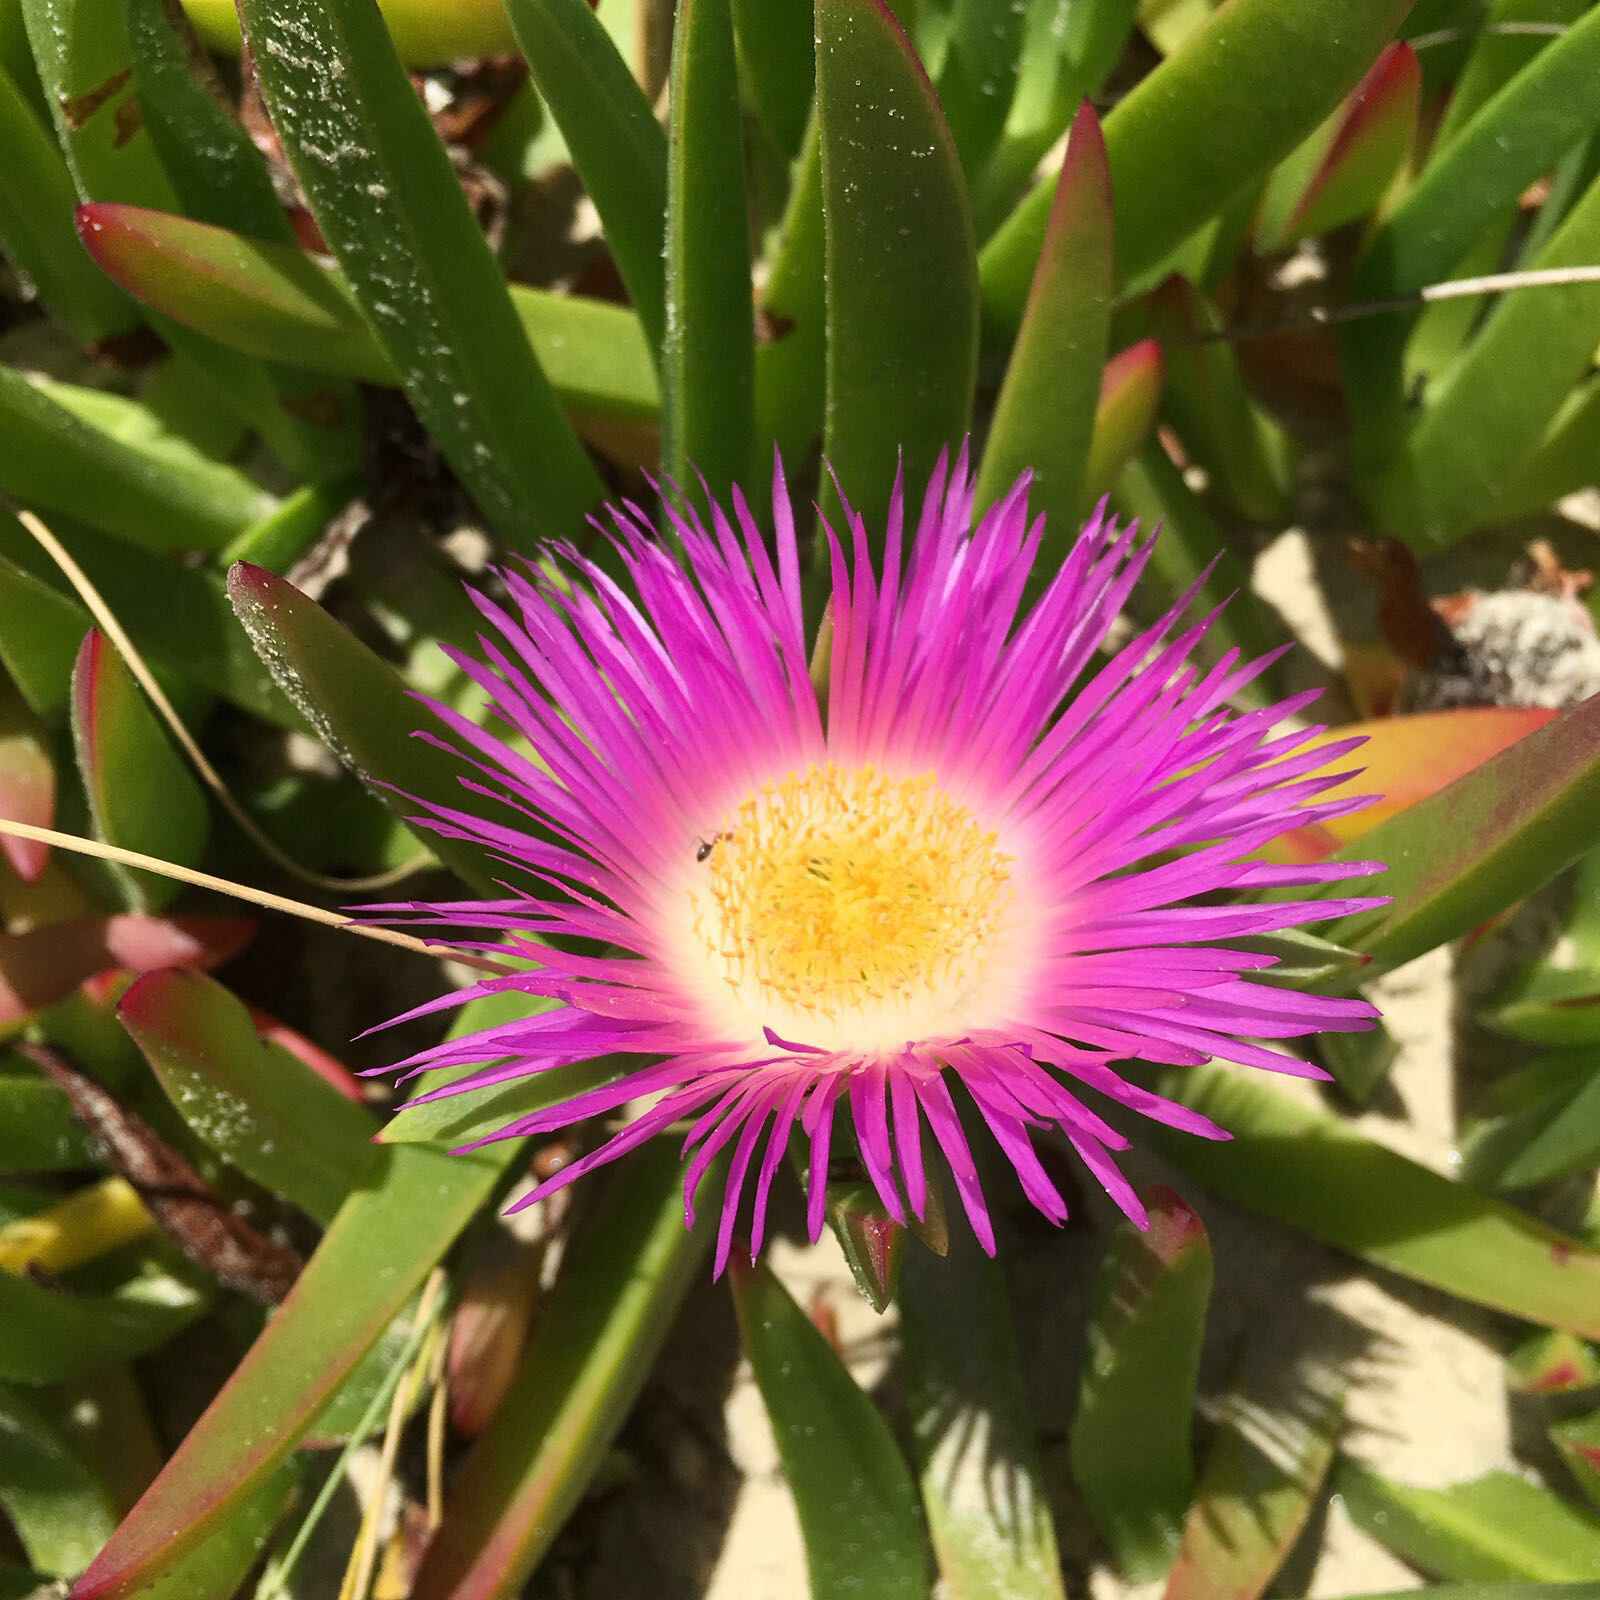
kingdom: Plantae
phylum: Tracheophyta
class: Magnoliopsida
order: Caryophyllales
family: Aizoaceae
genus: Carpobrotus
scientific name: Carpobrotus edulis
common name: Hottentot-fig
